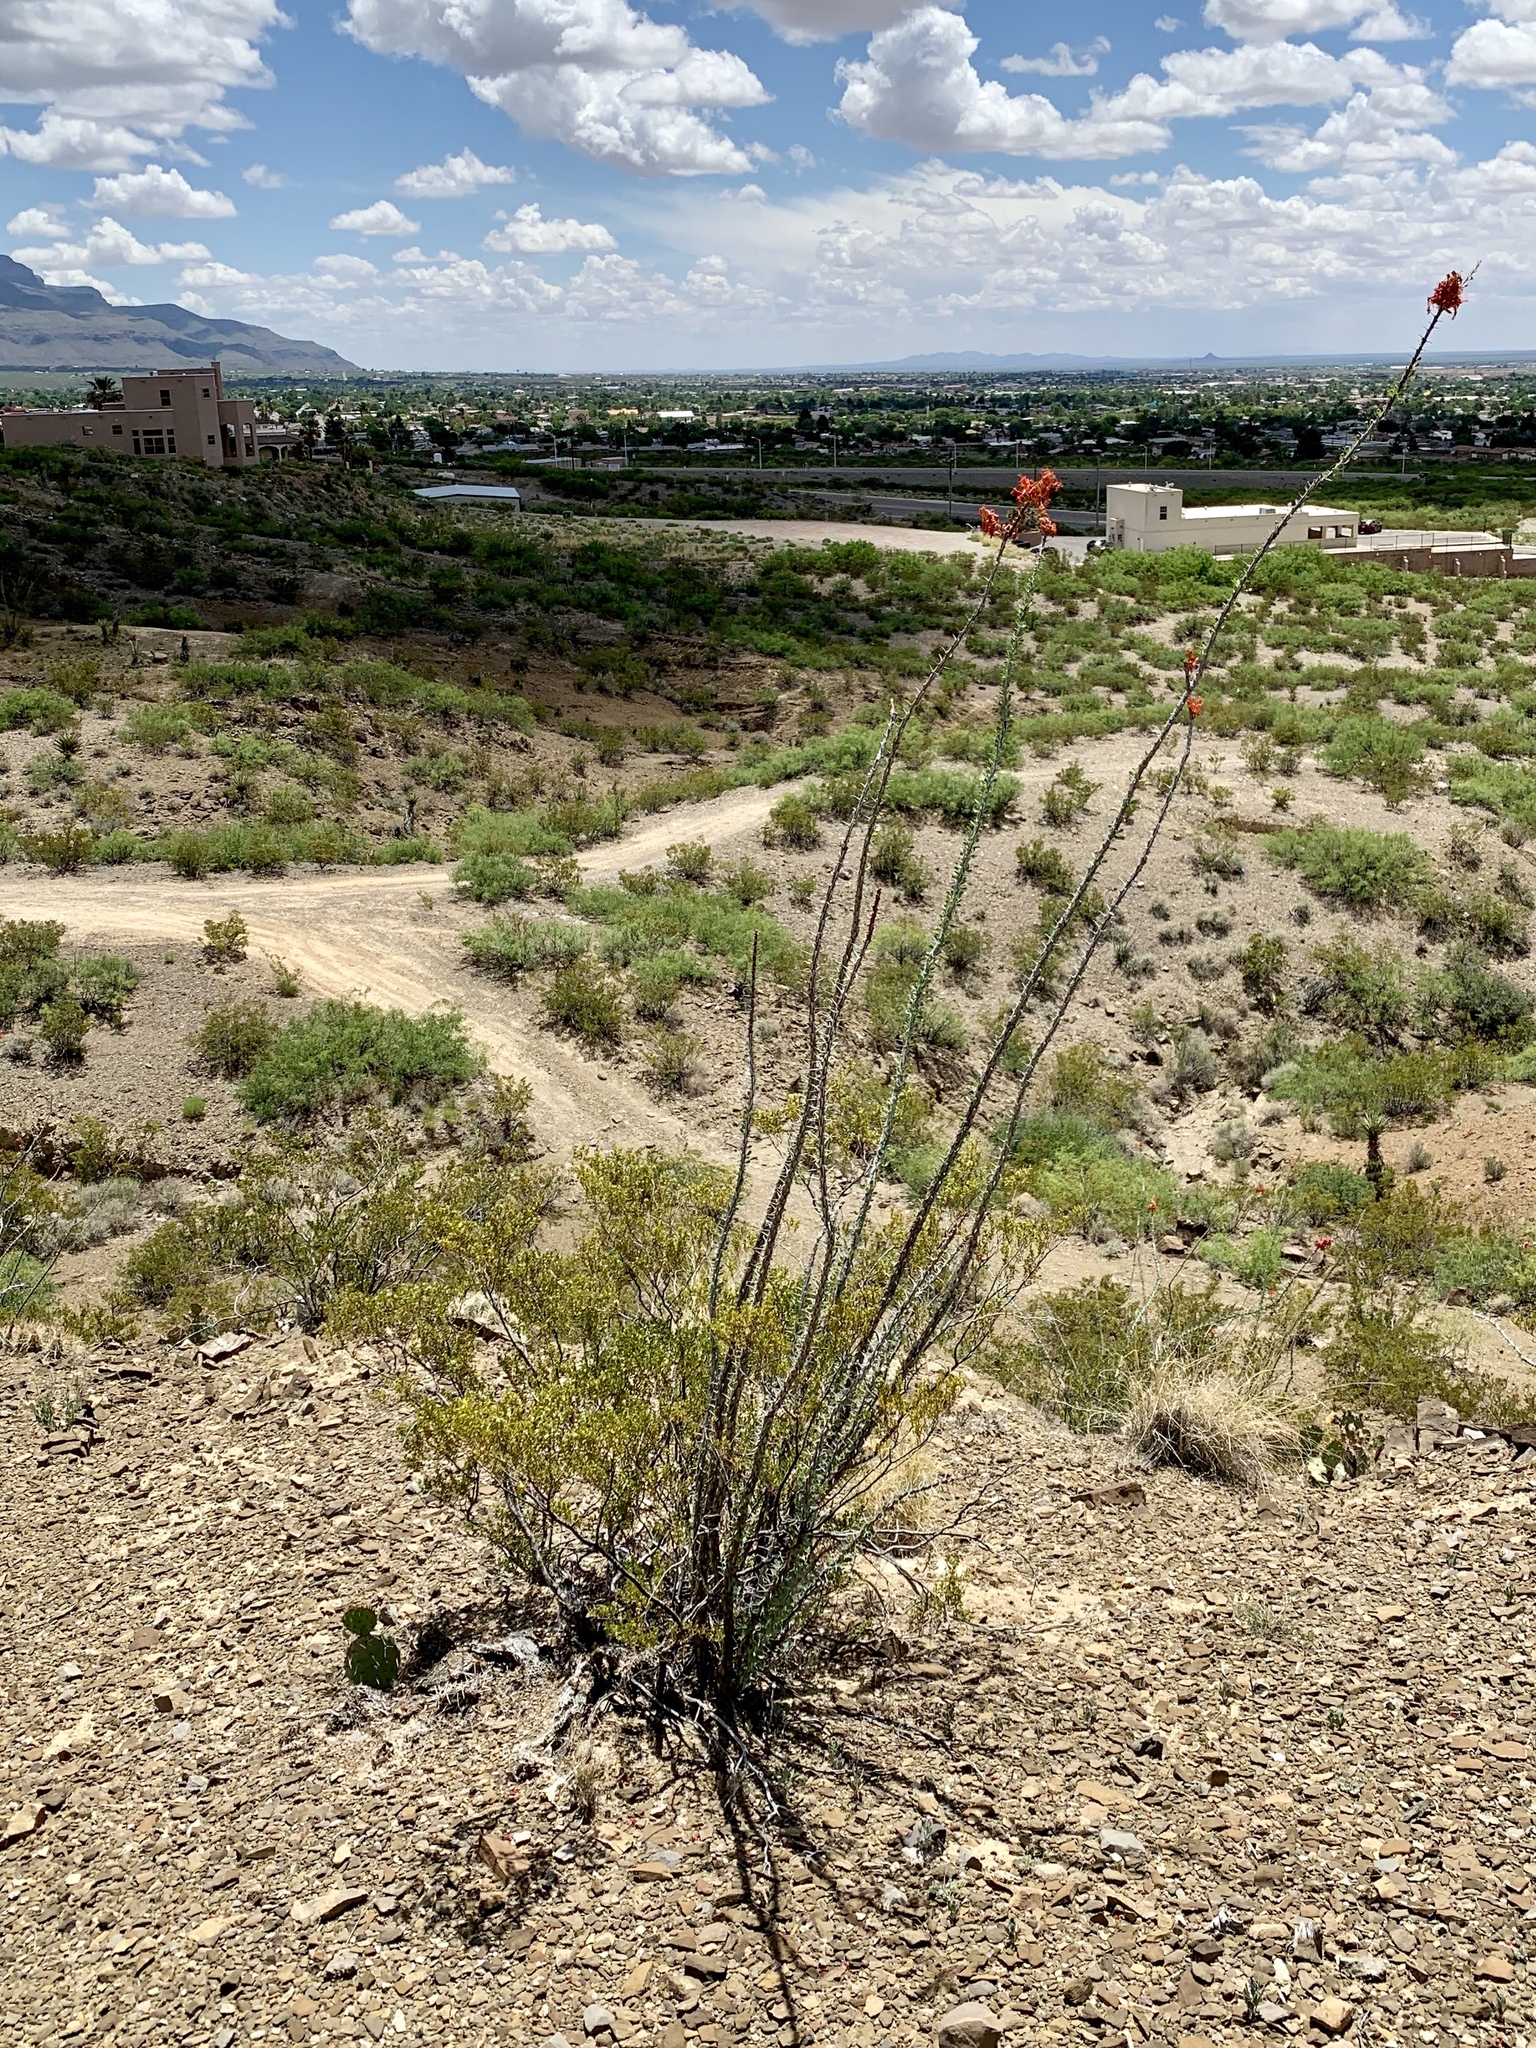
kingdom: Plantae
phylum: Tracheophyta
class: Magnoliopsida
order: Ericales
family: Fouquieriaceae
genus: Fouquieria
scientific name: Fouquieria splendens
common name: Vine-cactus
